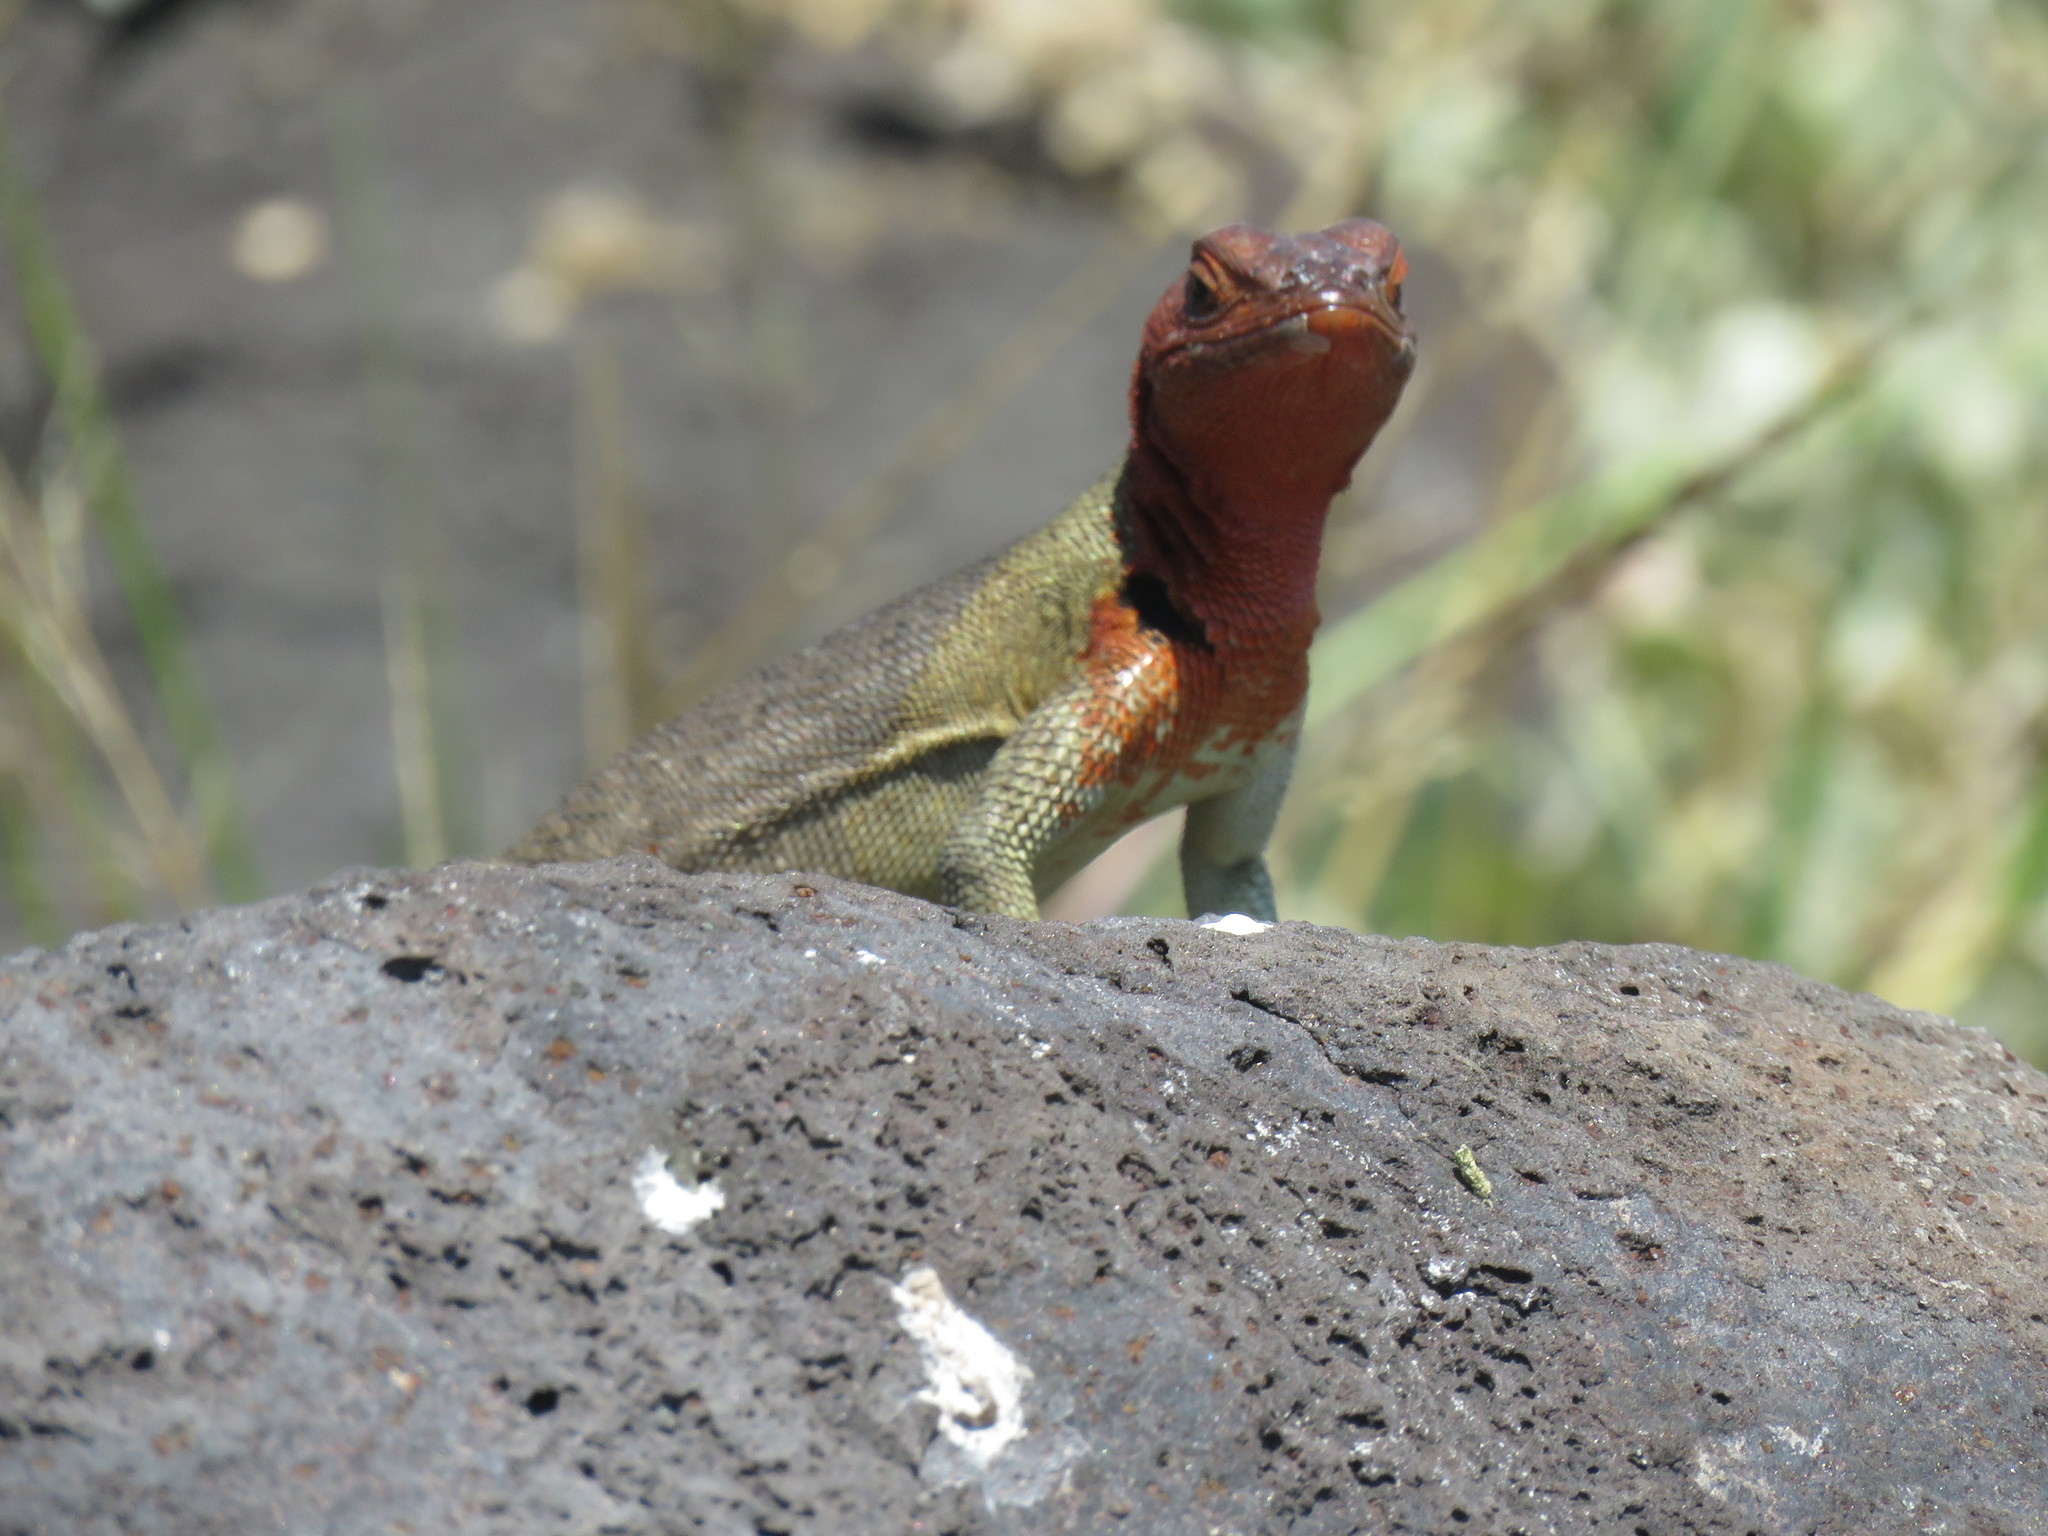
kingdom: Animalia
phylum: Chordata
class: Squamata
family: Tropiduridae
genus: Microlophus
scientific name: Microlophus delanonis
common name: Hood lava lizard
